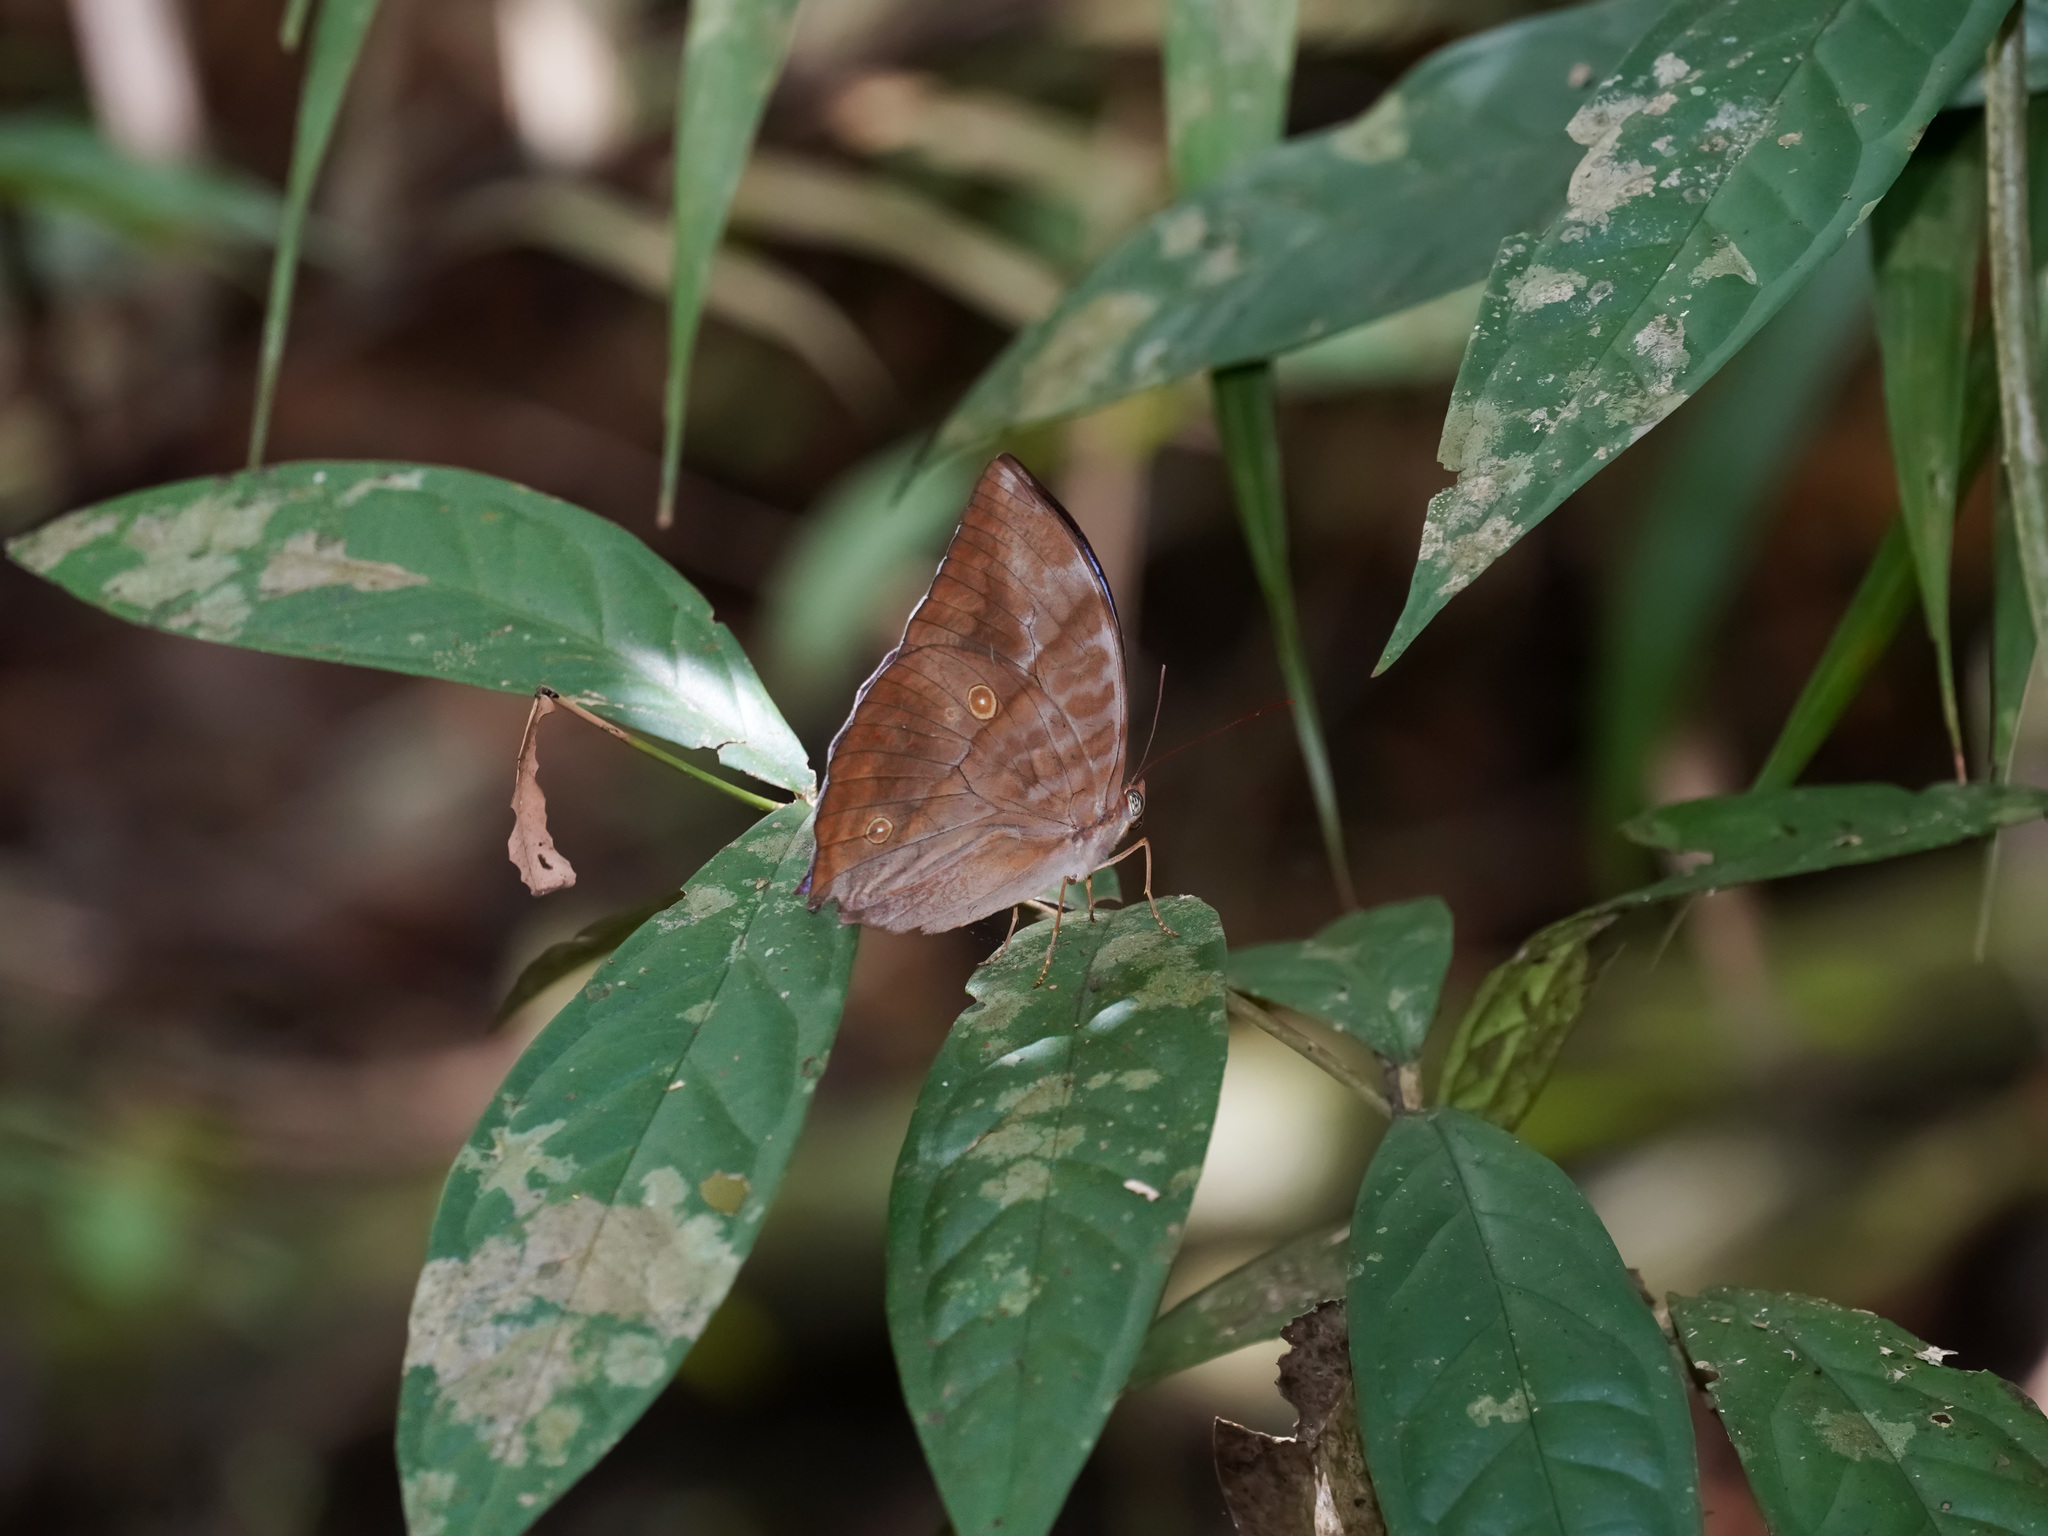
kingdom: Animalia
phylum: Arthropoda
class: Insecta
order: Lepidoptera
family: Nymphalidae
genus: Zeuxidia
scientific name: Zeuxidia amethysta
